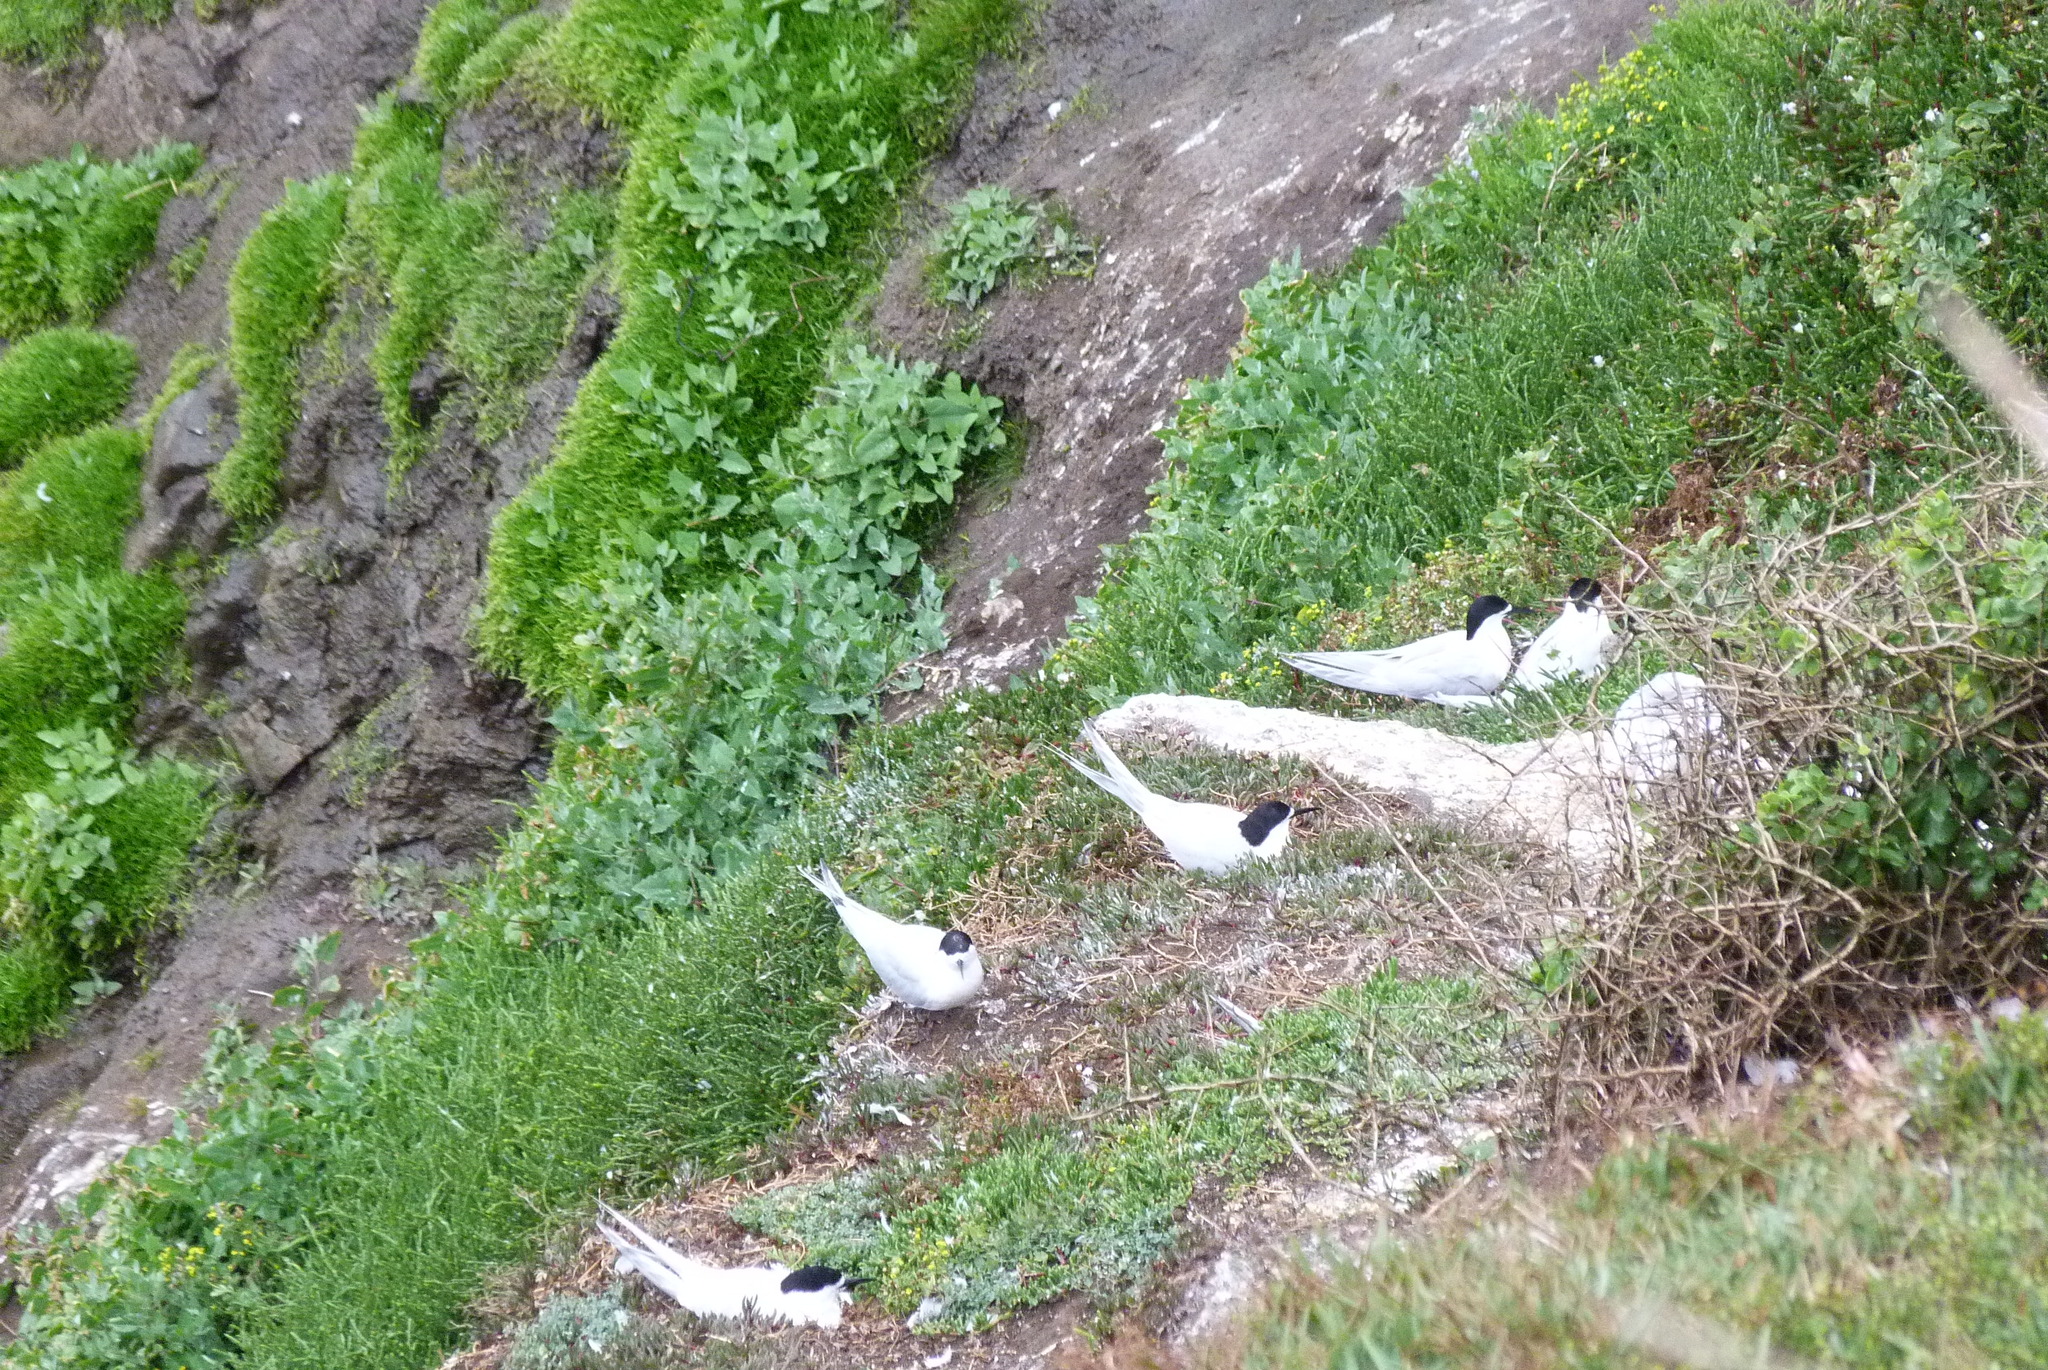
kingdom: Animalia
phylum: Chordata
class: Aves
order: Charadriiformes
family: Laridae
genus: Sterna
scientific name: Sterna striata
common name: White-fronted tern
